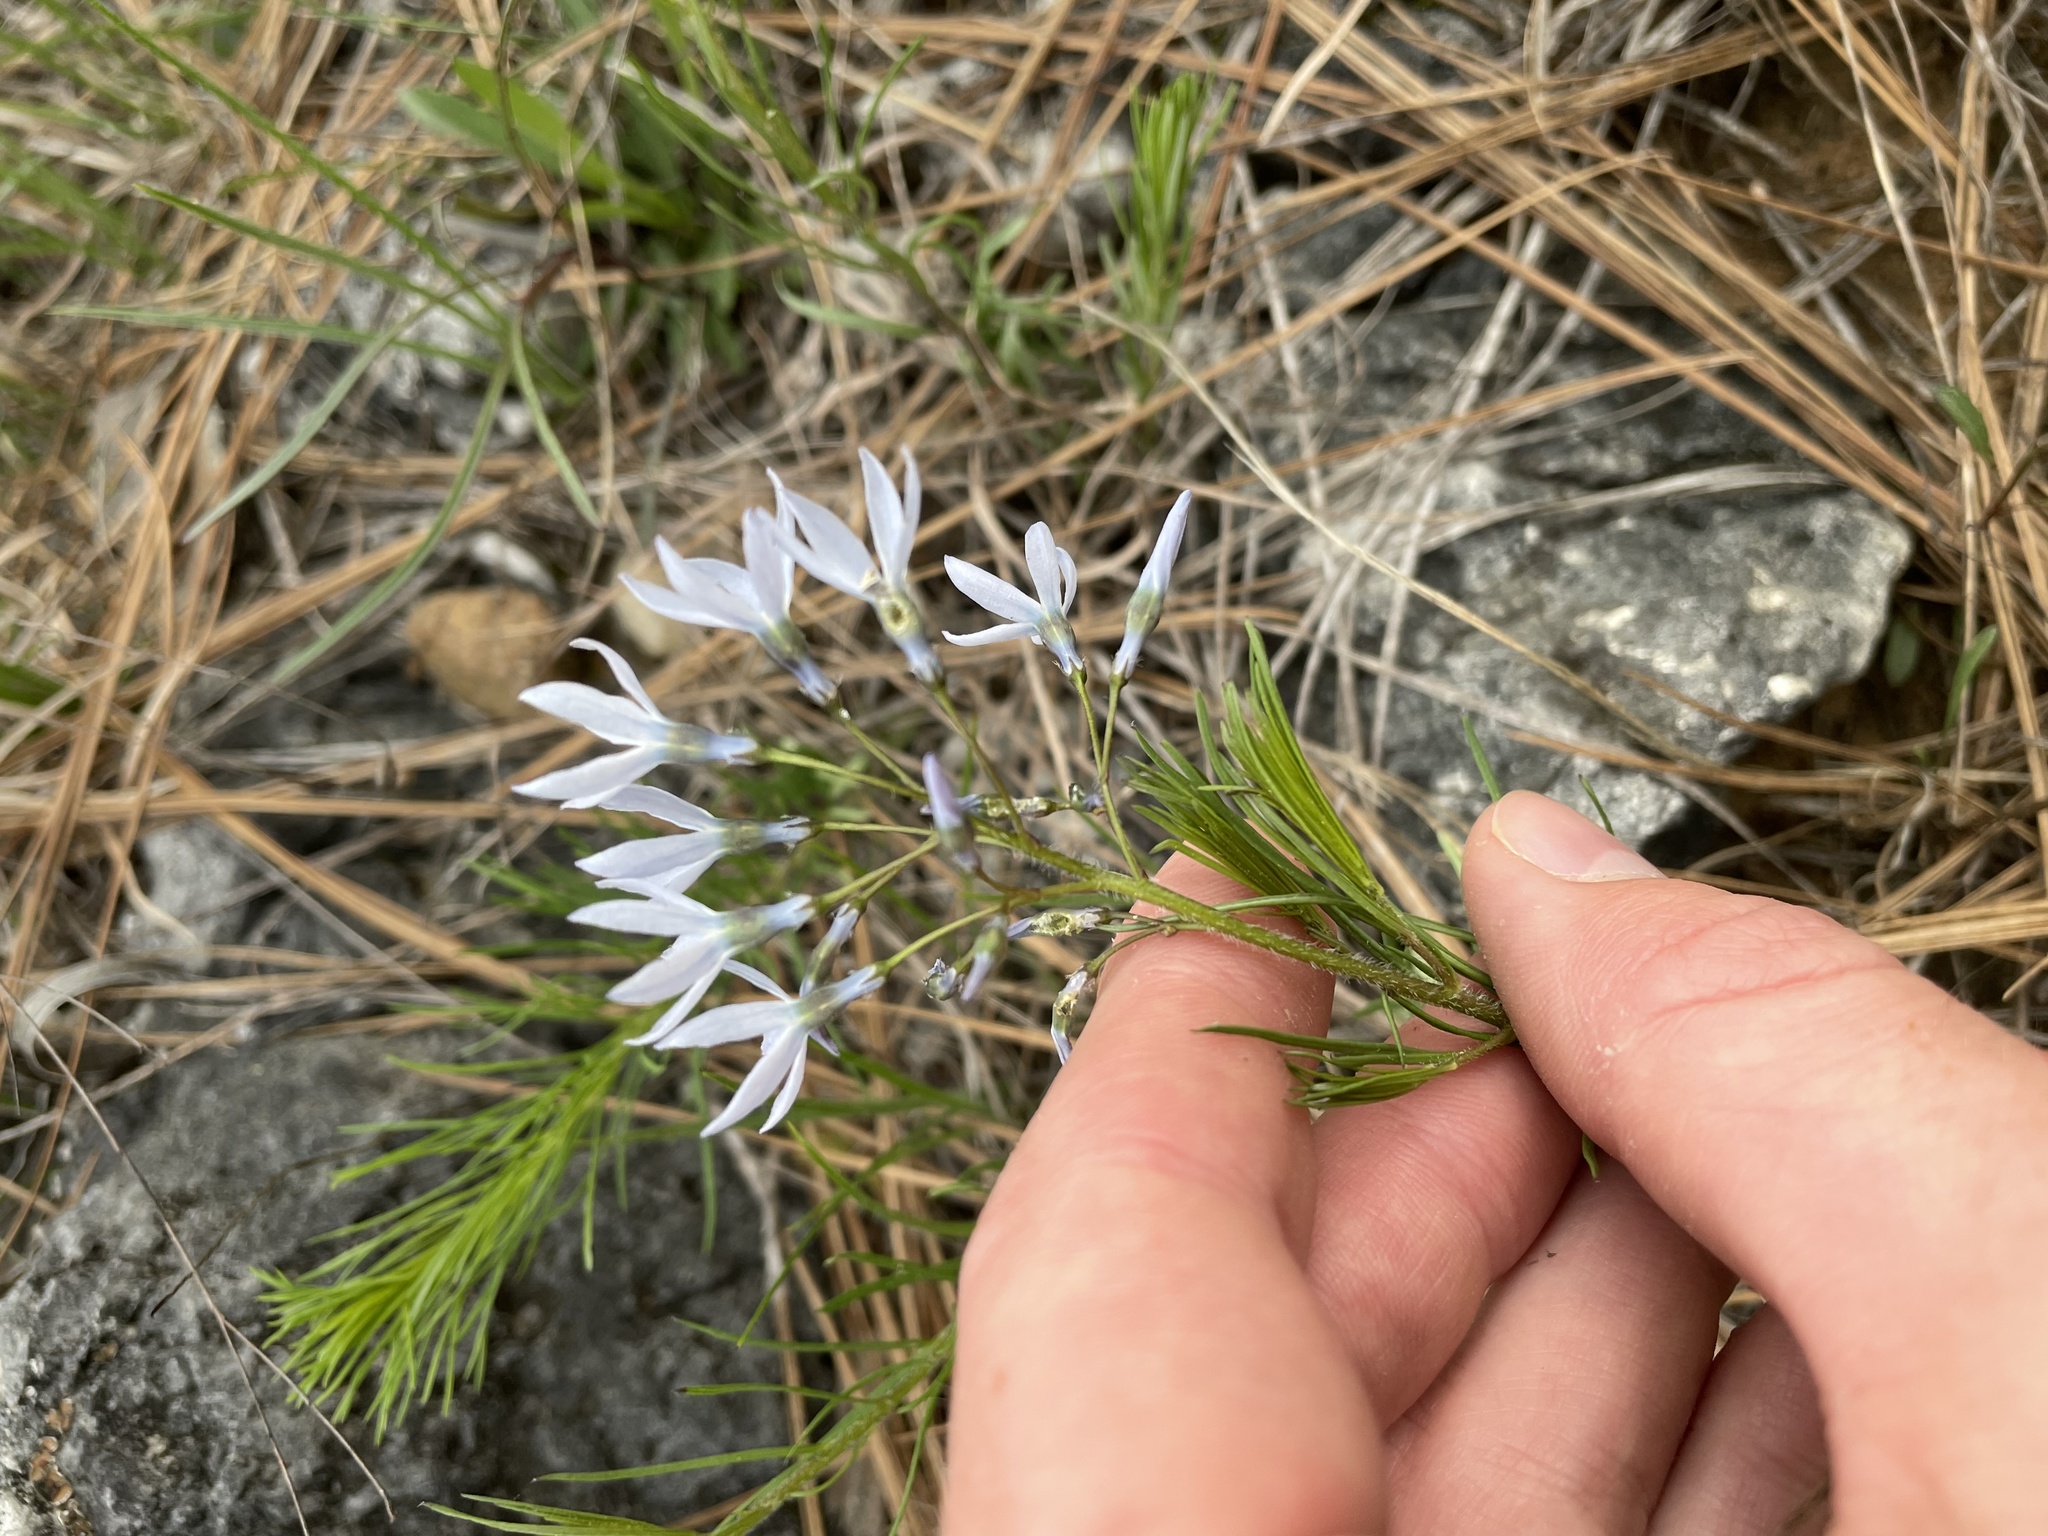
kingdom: Plantae
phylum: Tracheophyta
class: Magnoliopsida
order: Gentianales
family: Apocynaceae
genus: Amsonia
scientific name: Amsonia ciliata
